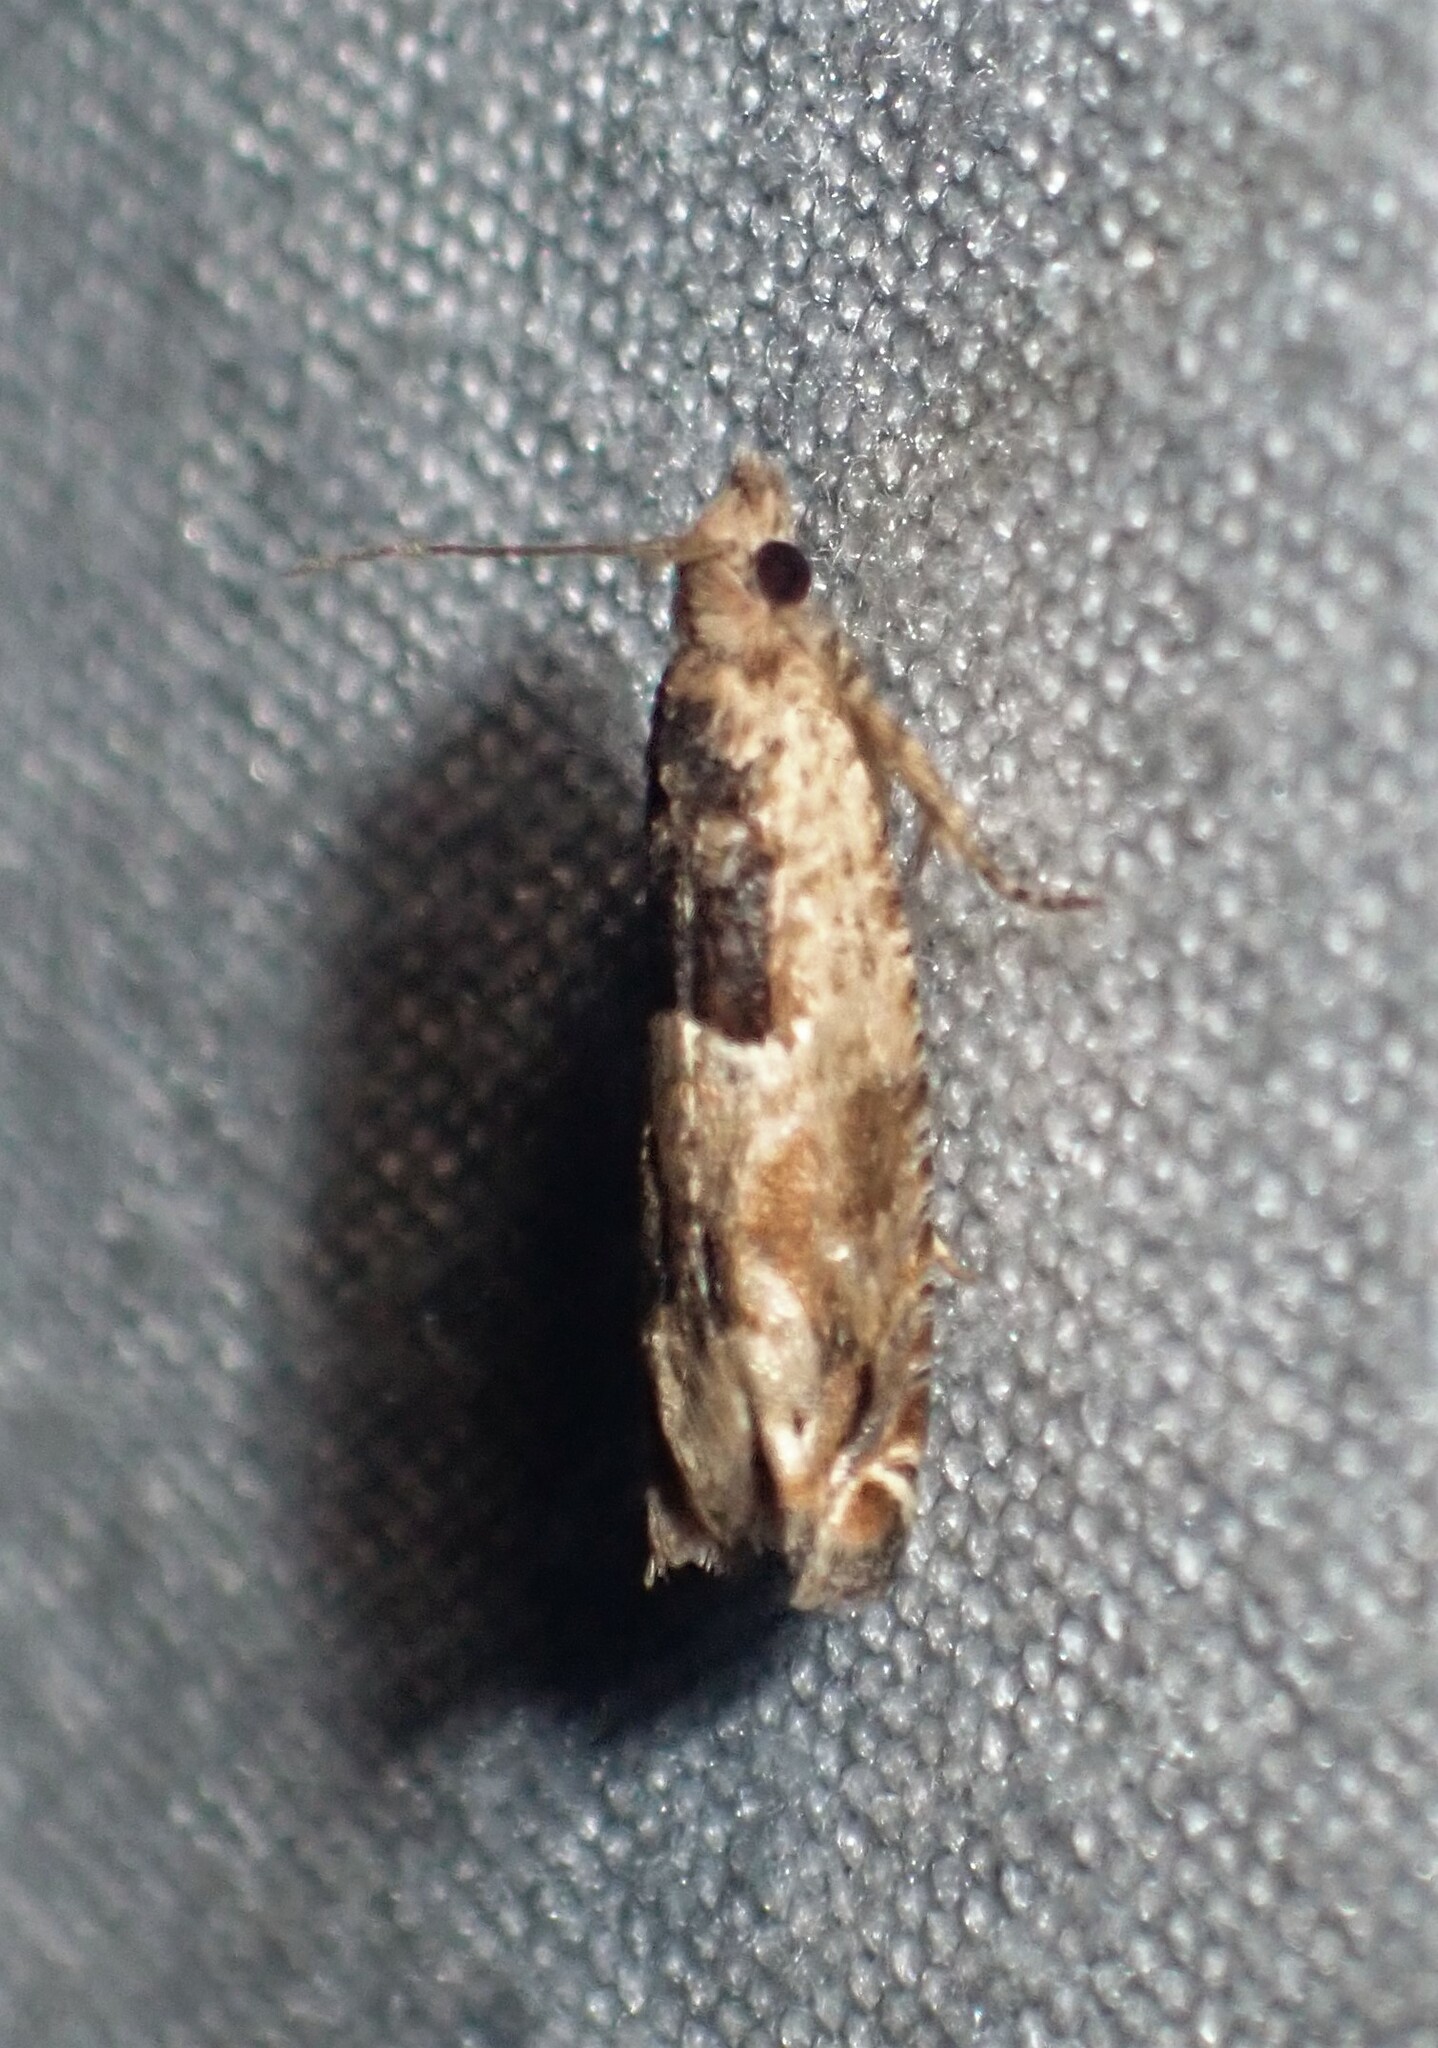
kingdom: Animalia
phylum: Arthropoda
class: Insecta
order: Lepidoptera
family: Tortricidae
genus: Crocidosema
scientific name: Crocidosema plebejana
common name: Southern bell
